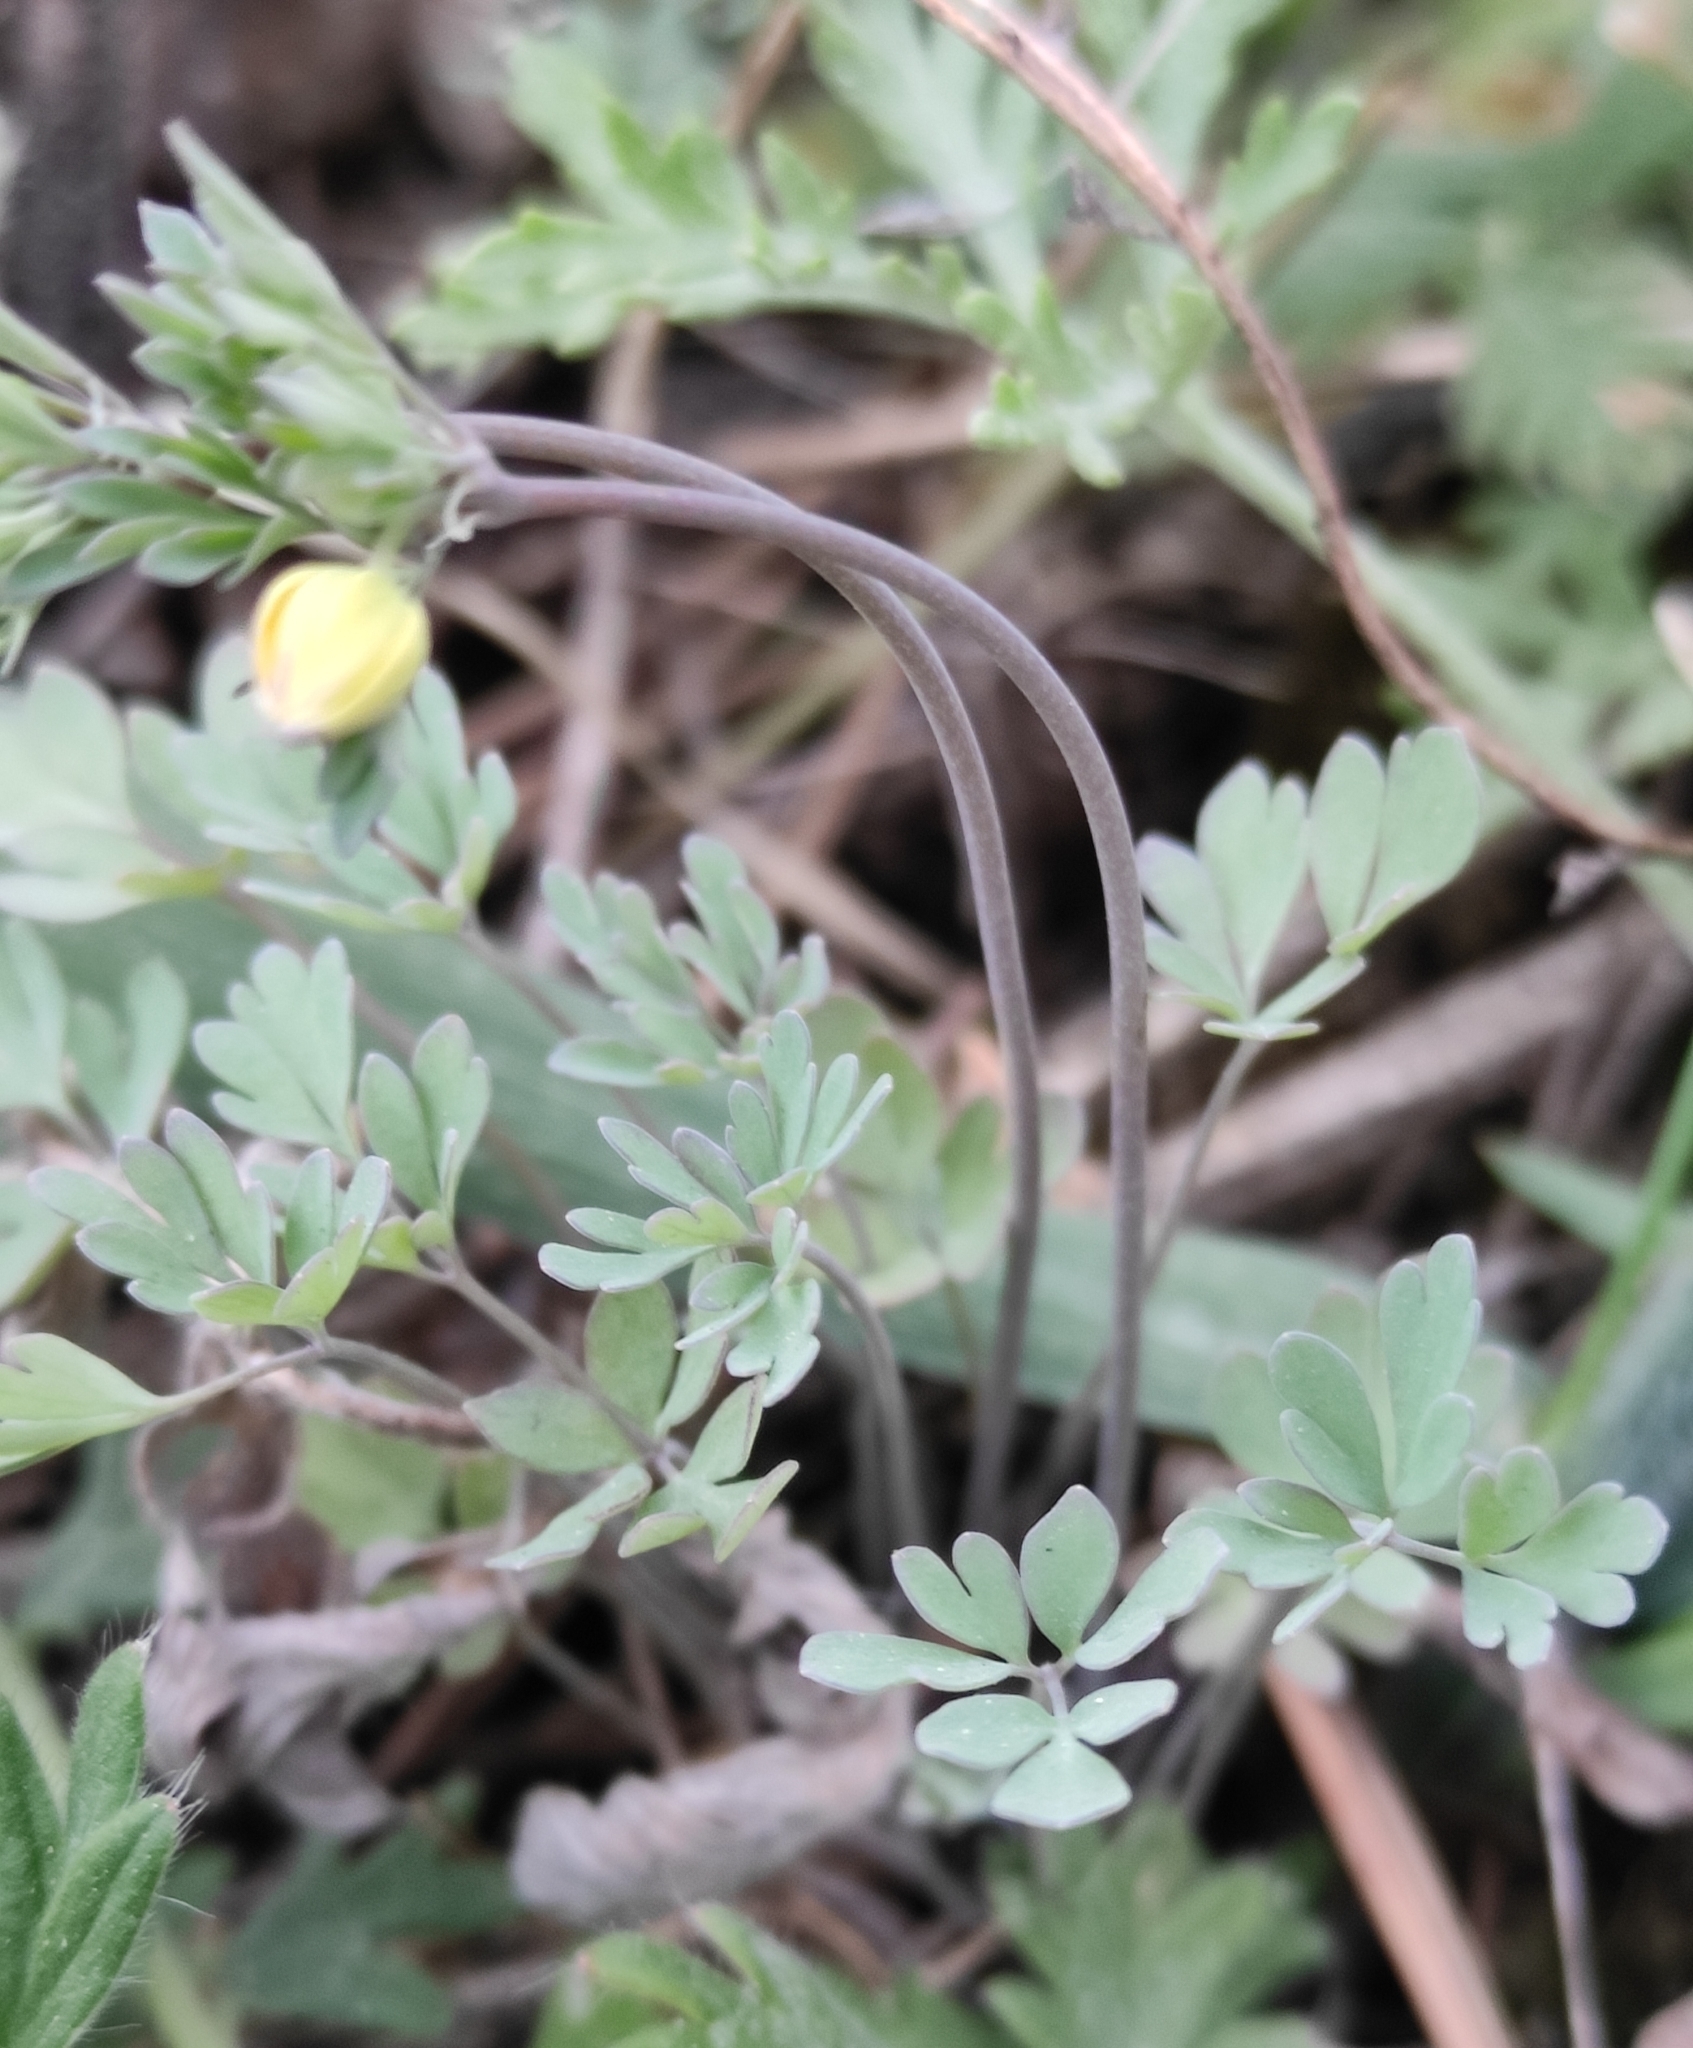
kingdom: Plantae
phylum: Tracheophyta
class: Magnoliopsida
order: Ranunculales
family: Ranunculaceae
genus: Leptopyrum
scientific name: Leptopyrum fumarioides
